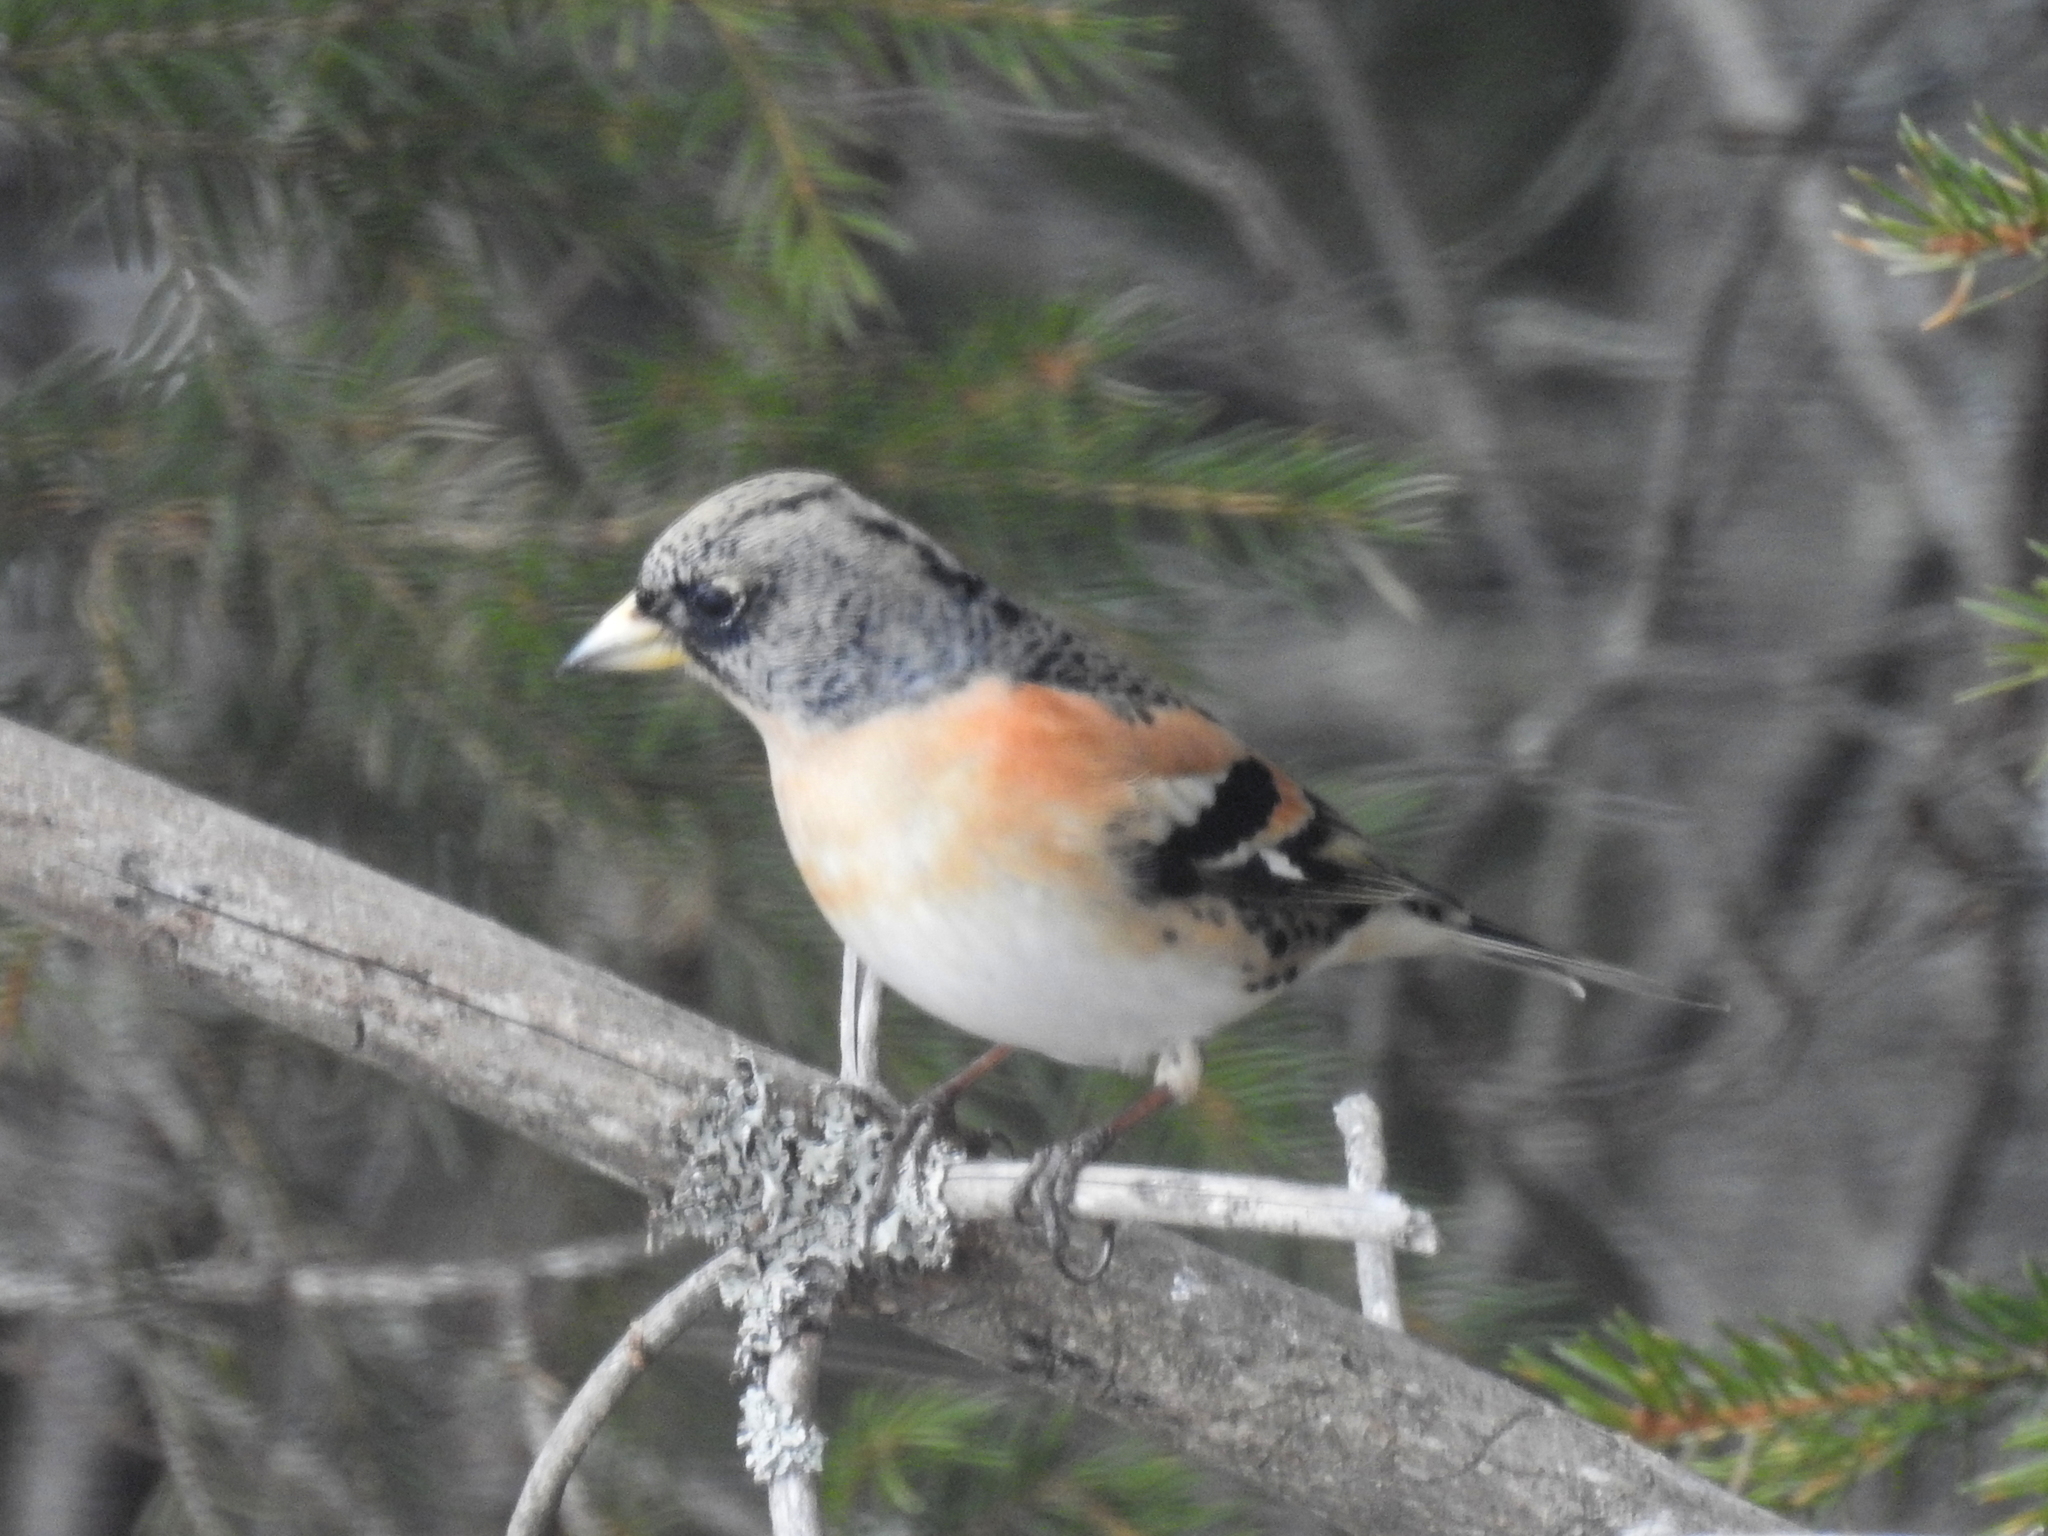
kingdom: Animalia
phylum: Chordata
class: Aves
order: Passeriformes
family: Fringillidae
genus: Fringilla
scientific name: Fringilla montifringilla
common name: Brambling
